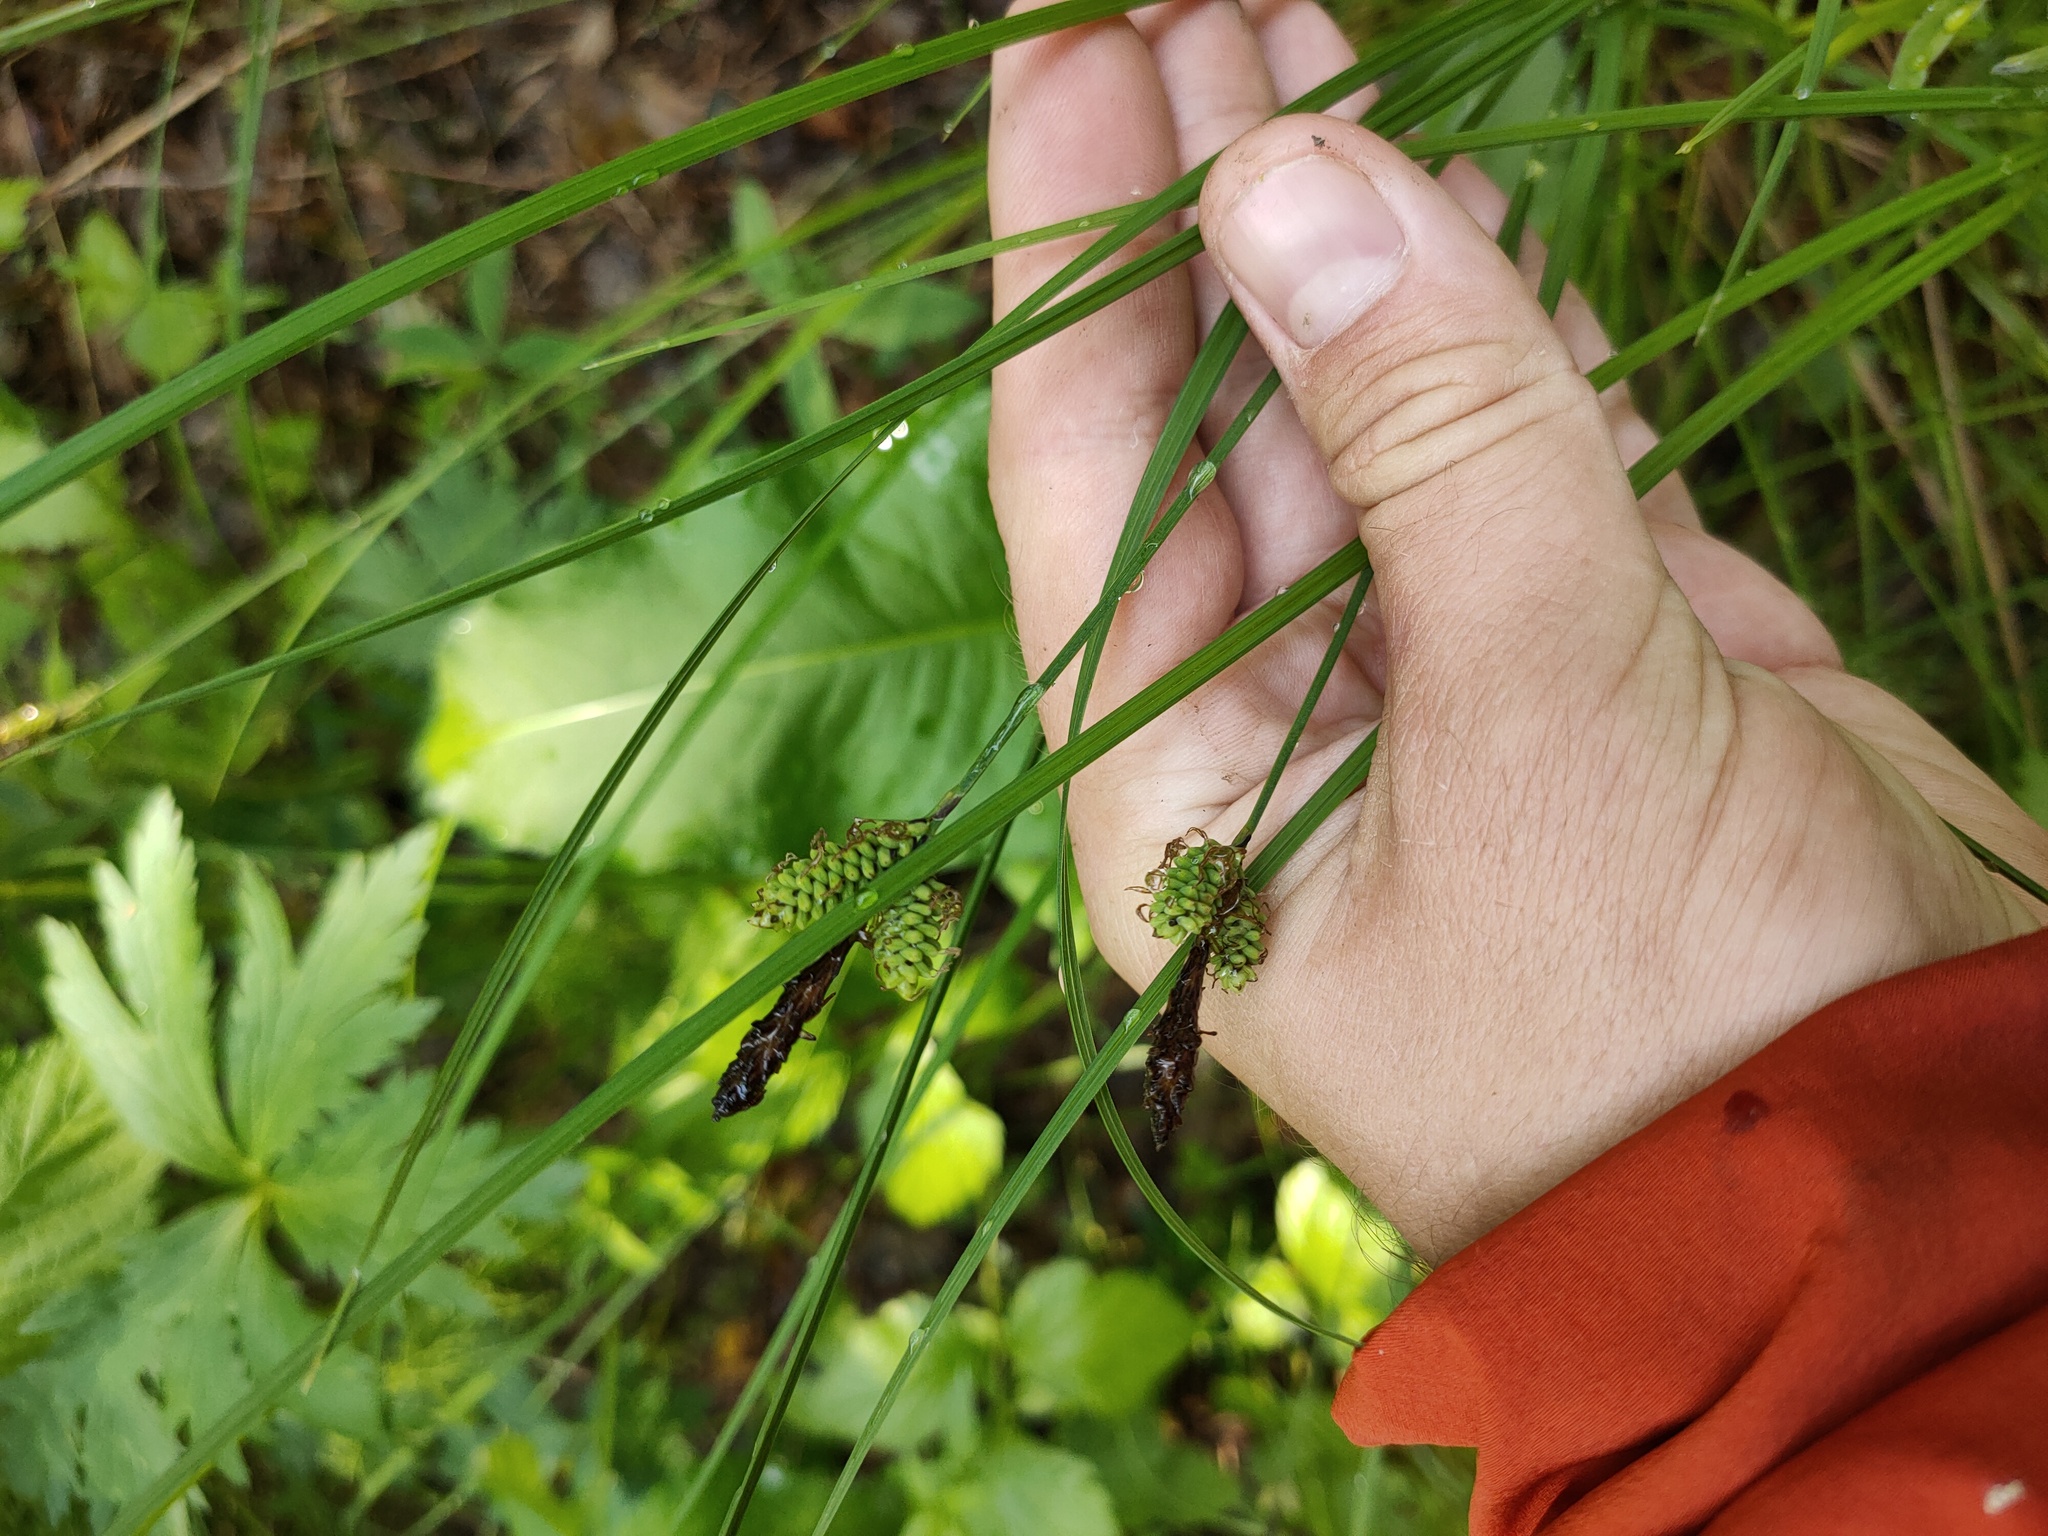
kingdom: Plantae
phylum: Tracheophyta
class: Liliopsida
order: Poales
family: Cyperaceae
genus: Carex
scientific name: Carex cespitosa
